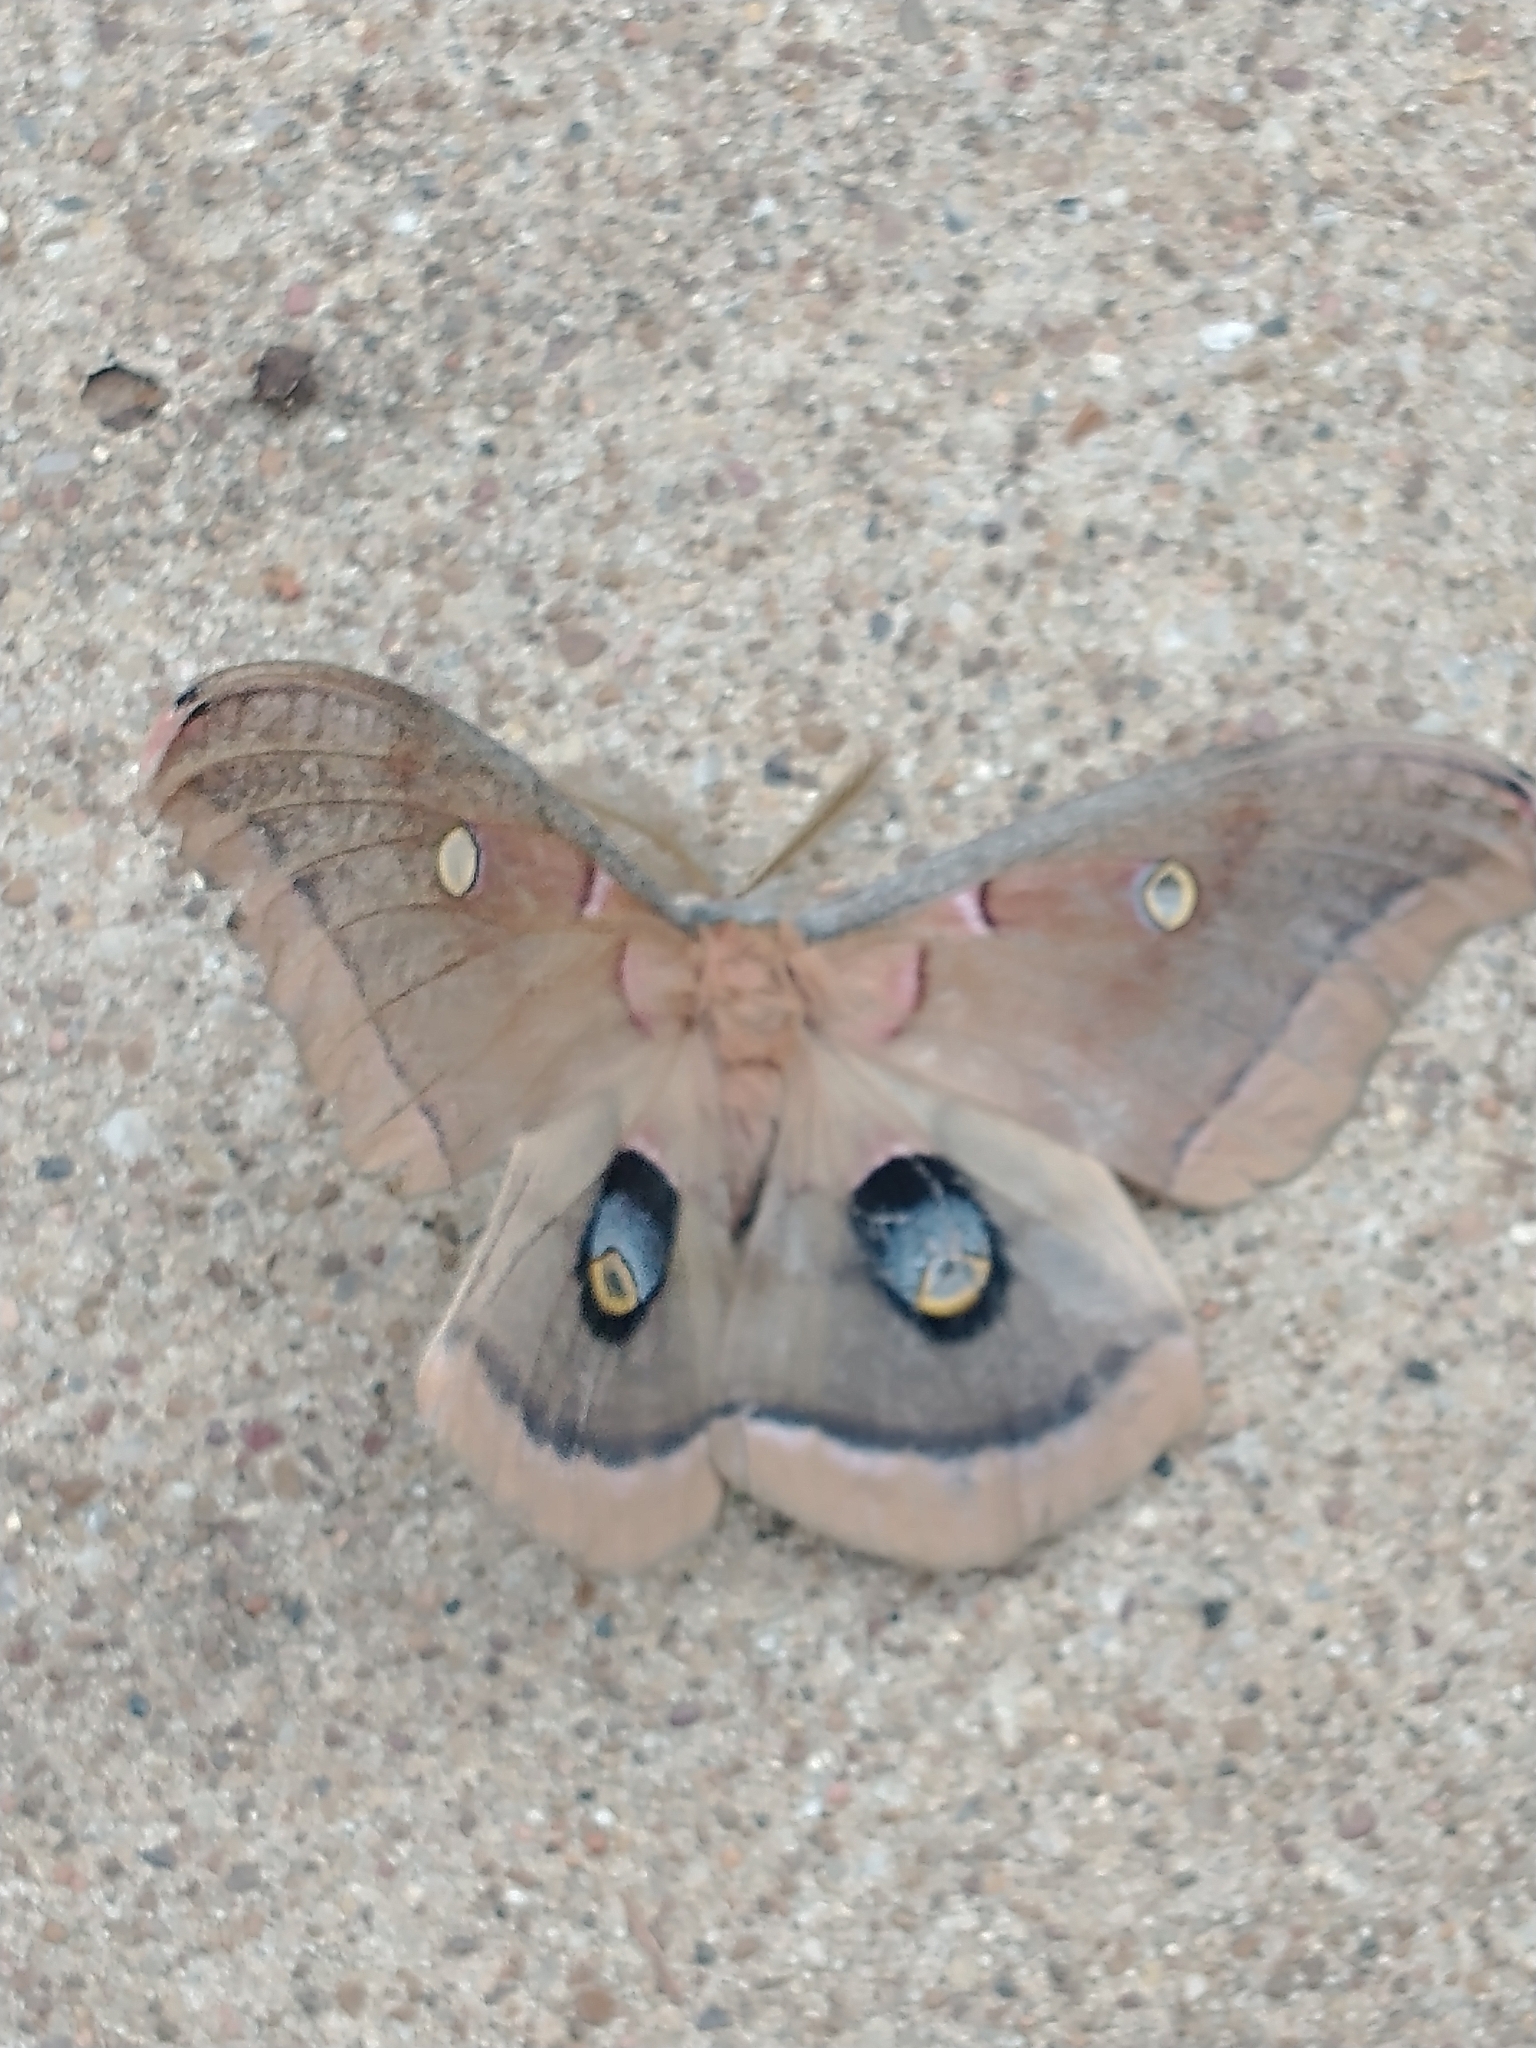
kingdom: Animalia
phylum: Arthropoda
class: Insecta
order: Lepidoptera
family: Saturniidae
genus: Antheraea
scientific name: Antheraea polyphemus
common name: Polyphemus moth
